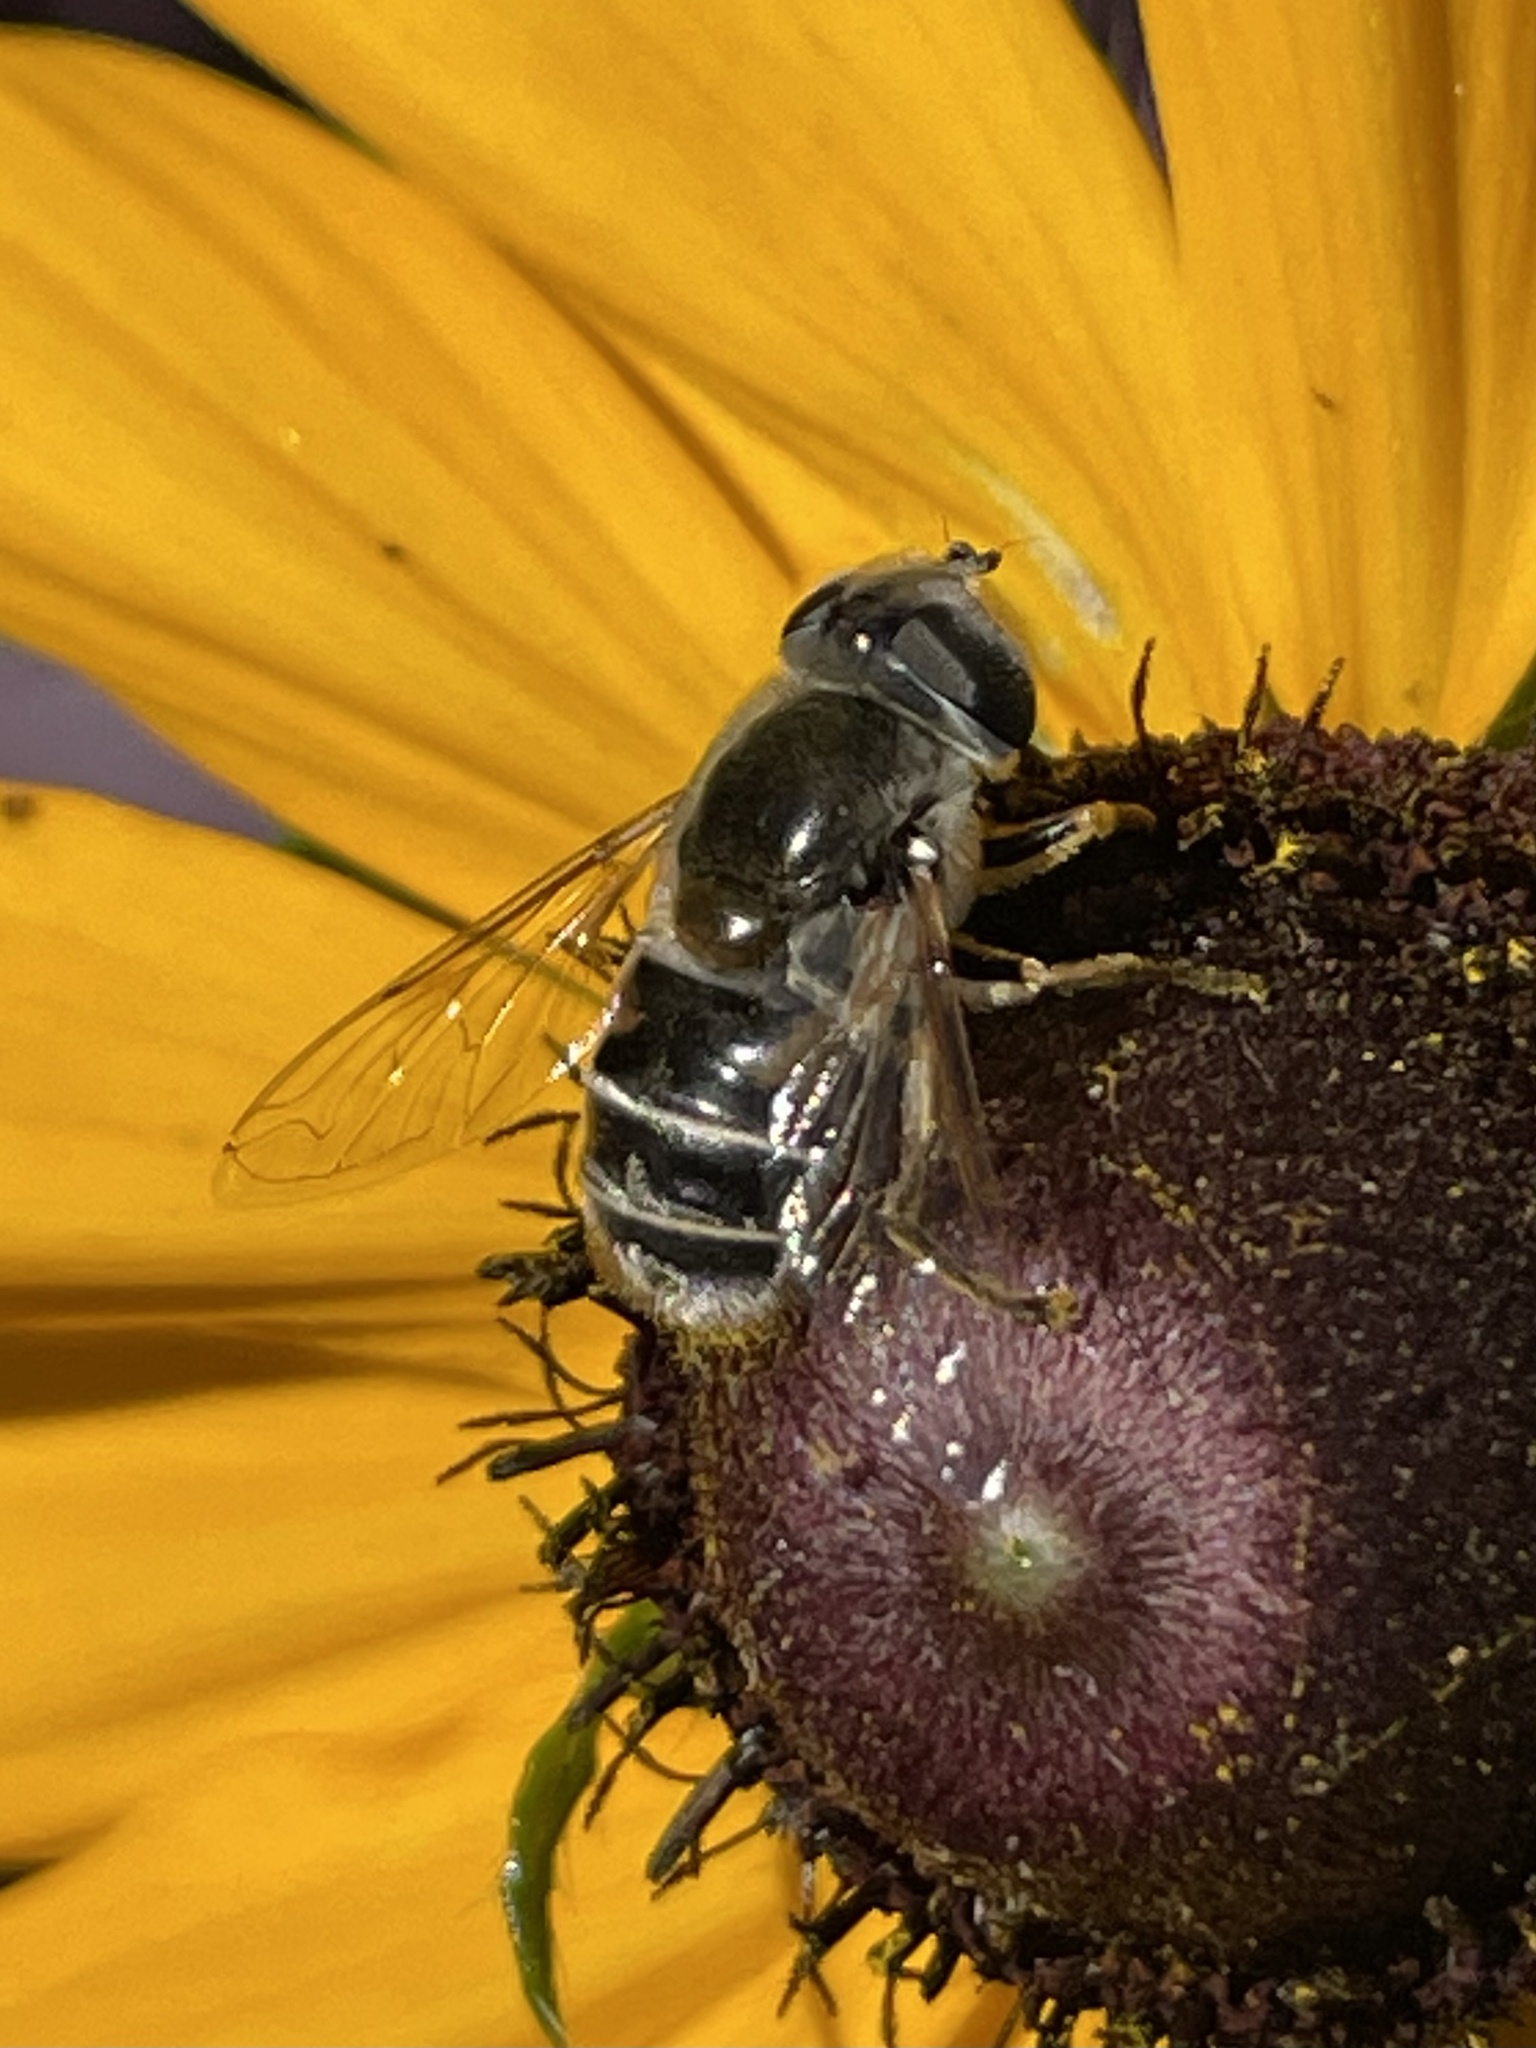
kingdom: Animalia
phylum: Arthropoda
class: Insecta
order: Diptera
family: Syrphidae
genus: Eristalis
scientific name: Eristalis stipator
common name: Yellow-shouldered drone fly
